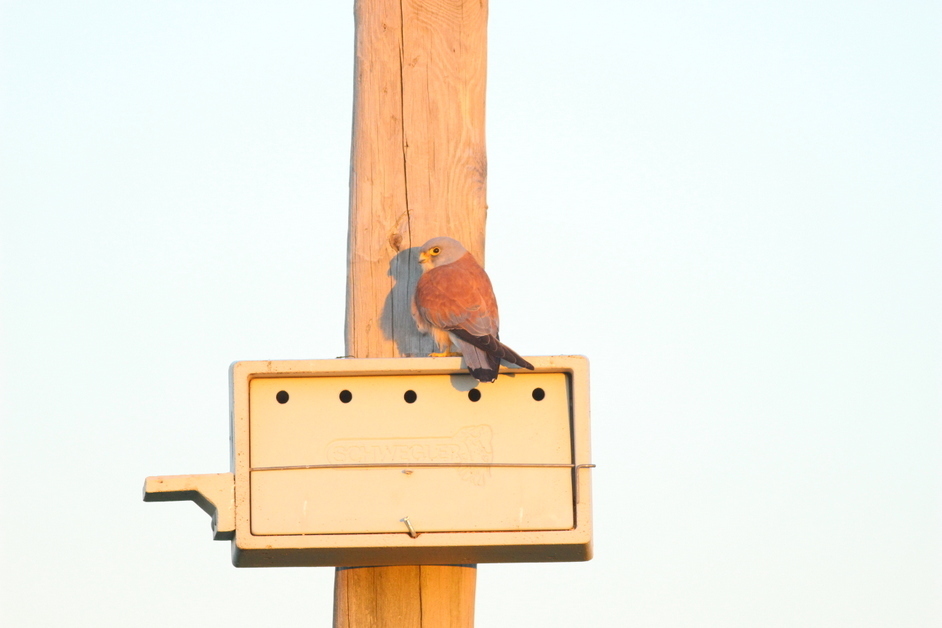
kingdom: Animalia
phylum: Chordata
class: Aves
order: Falconiformes
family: Falconidae
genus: Falco
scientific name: Falco naumanni
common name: Lesser kestrel
